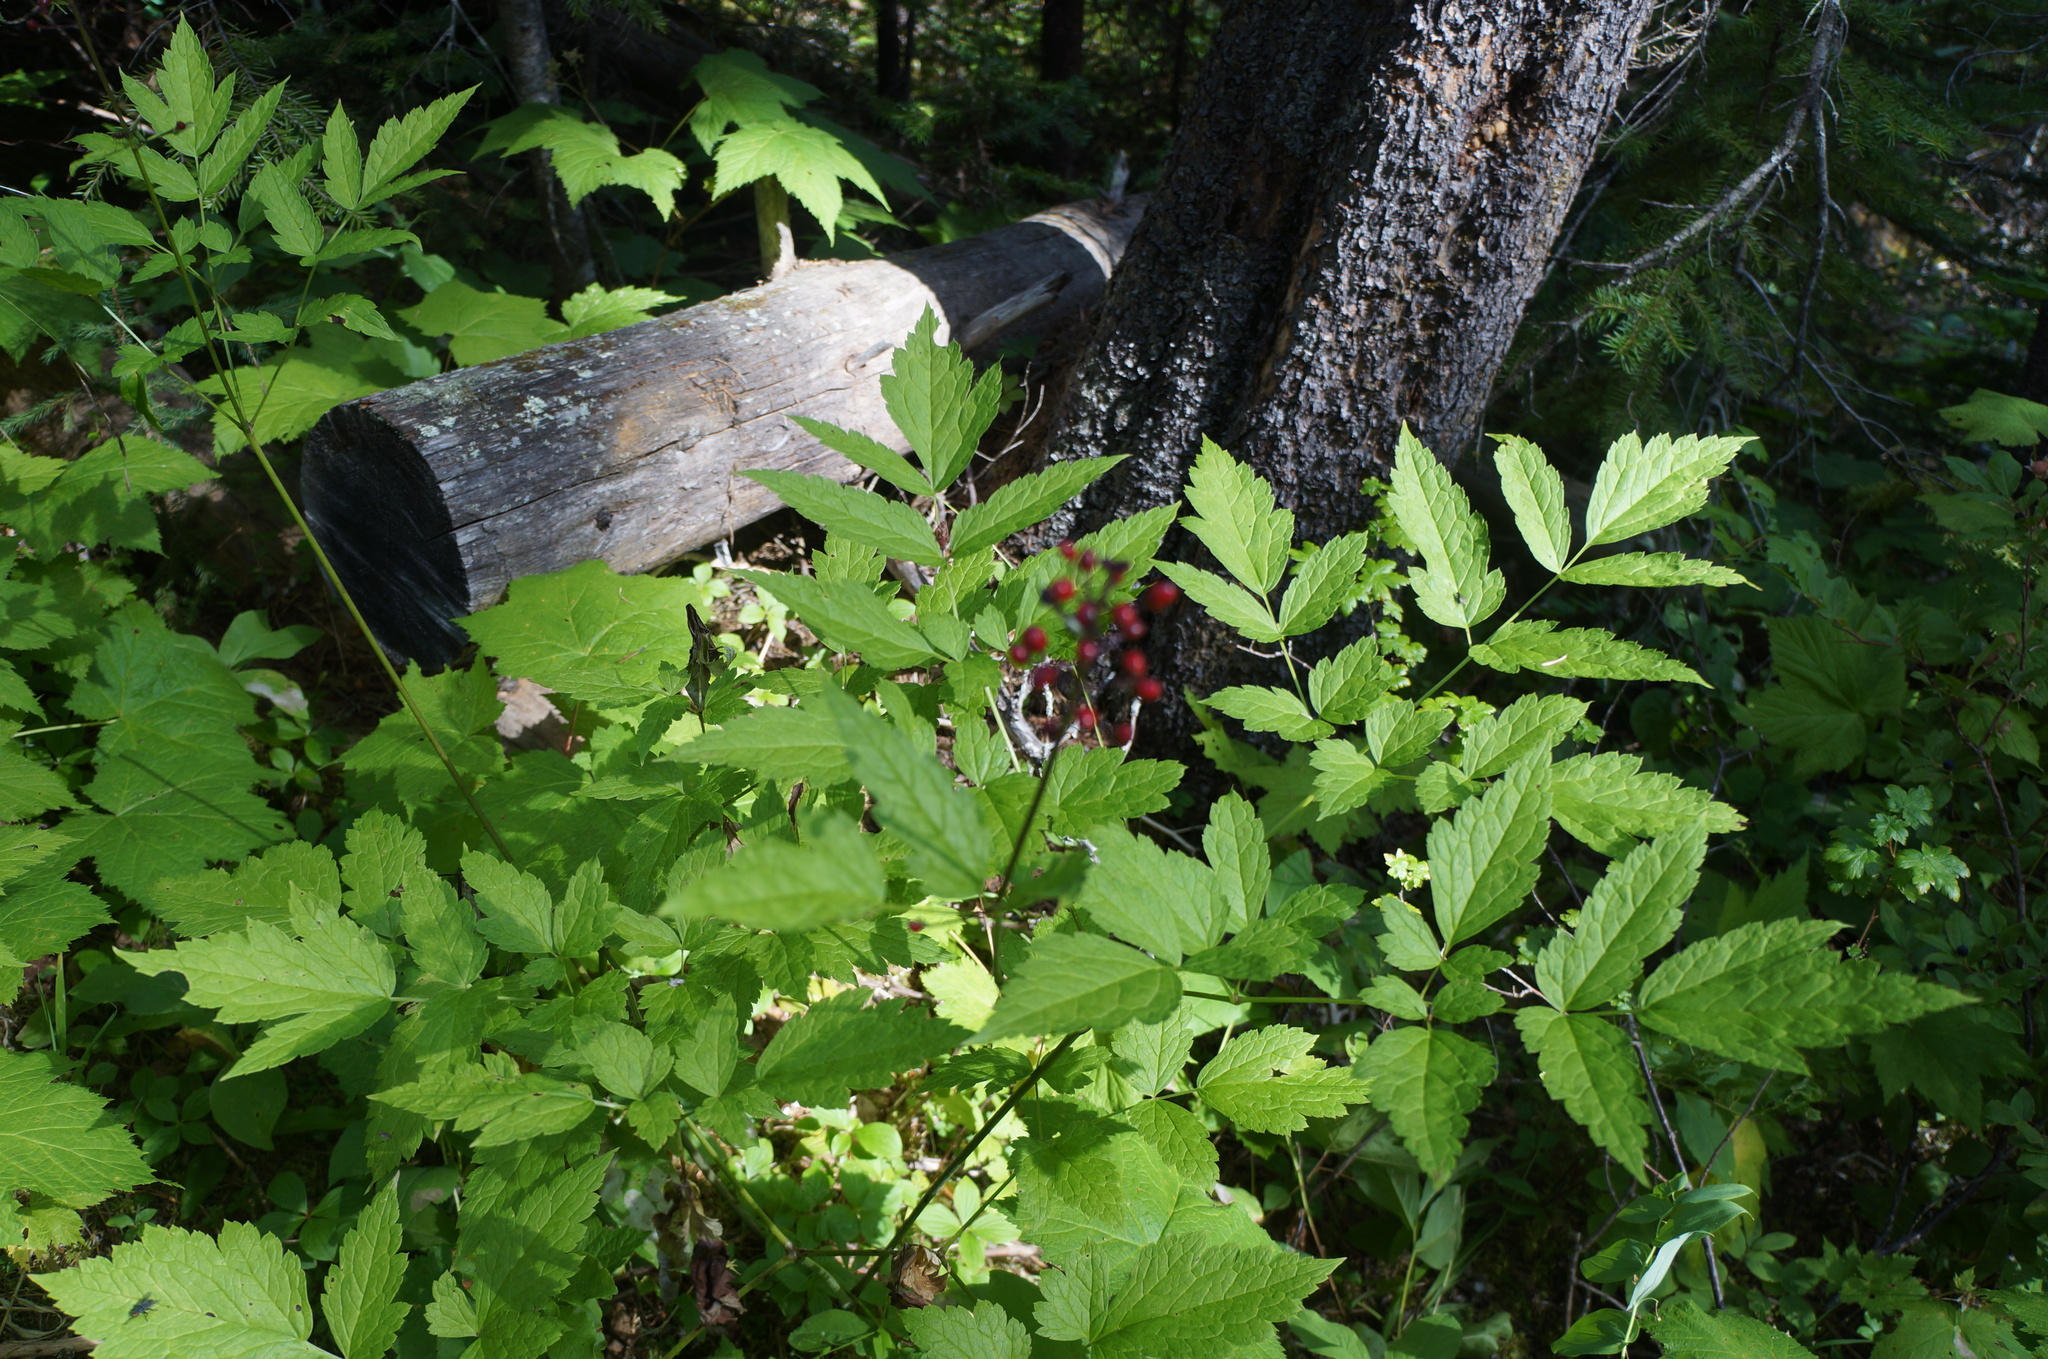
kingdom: Plantae
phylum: Tracheophyta
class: Magnoliopsida
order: Ranunculales
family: Ranunculaceae
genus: Actaea
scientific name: Actaea rubra
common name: Red baneberry
